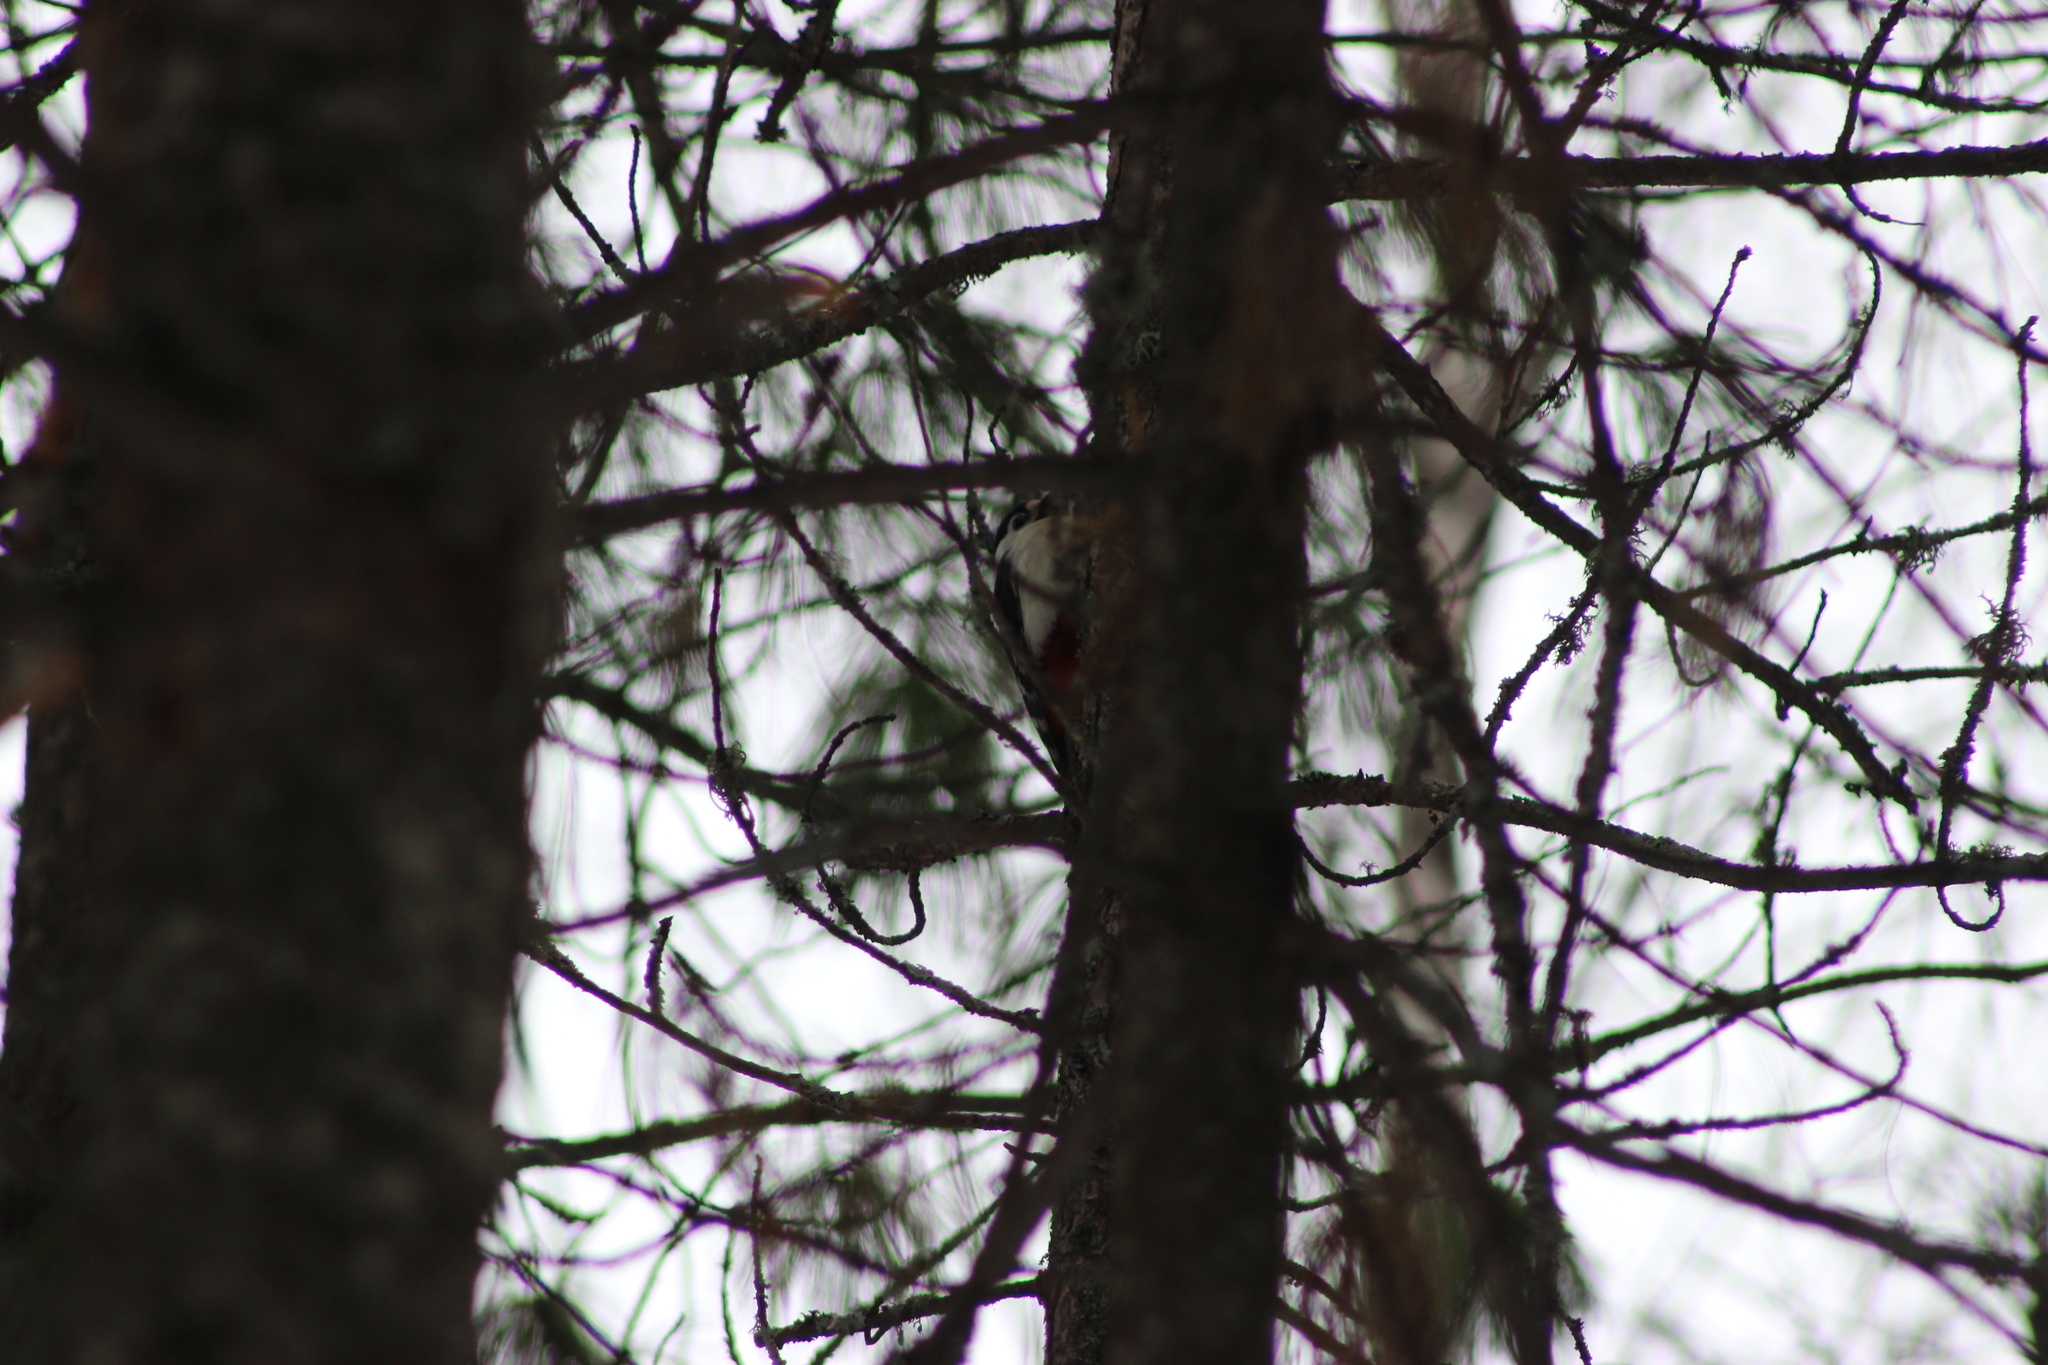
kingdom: Animalia
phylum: Chordata
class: Aves
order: Piciformes
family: Picidae
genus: Dendrocopos
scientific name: Dendrocopos major
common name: Great spotted woodpecker
